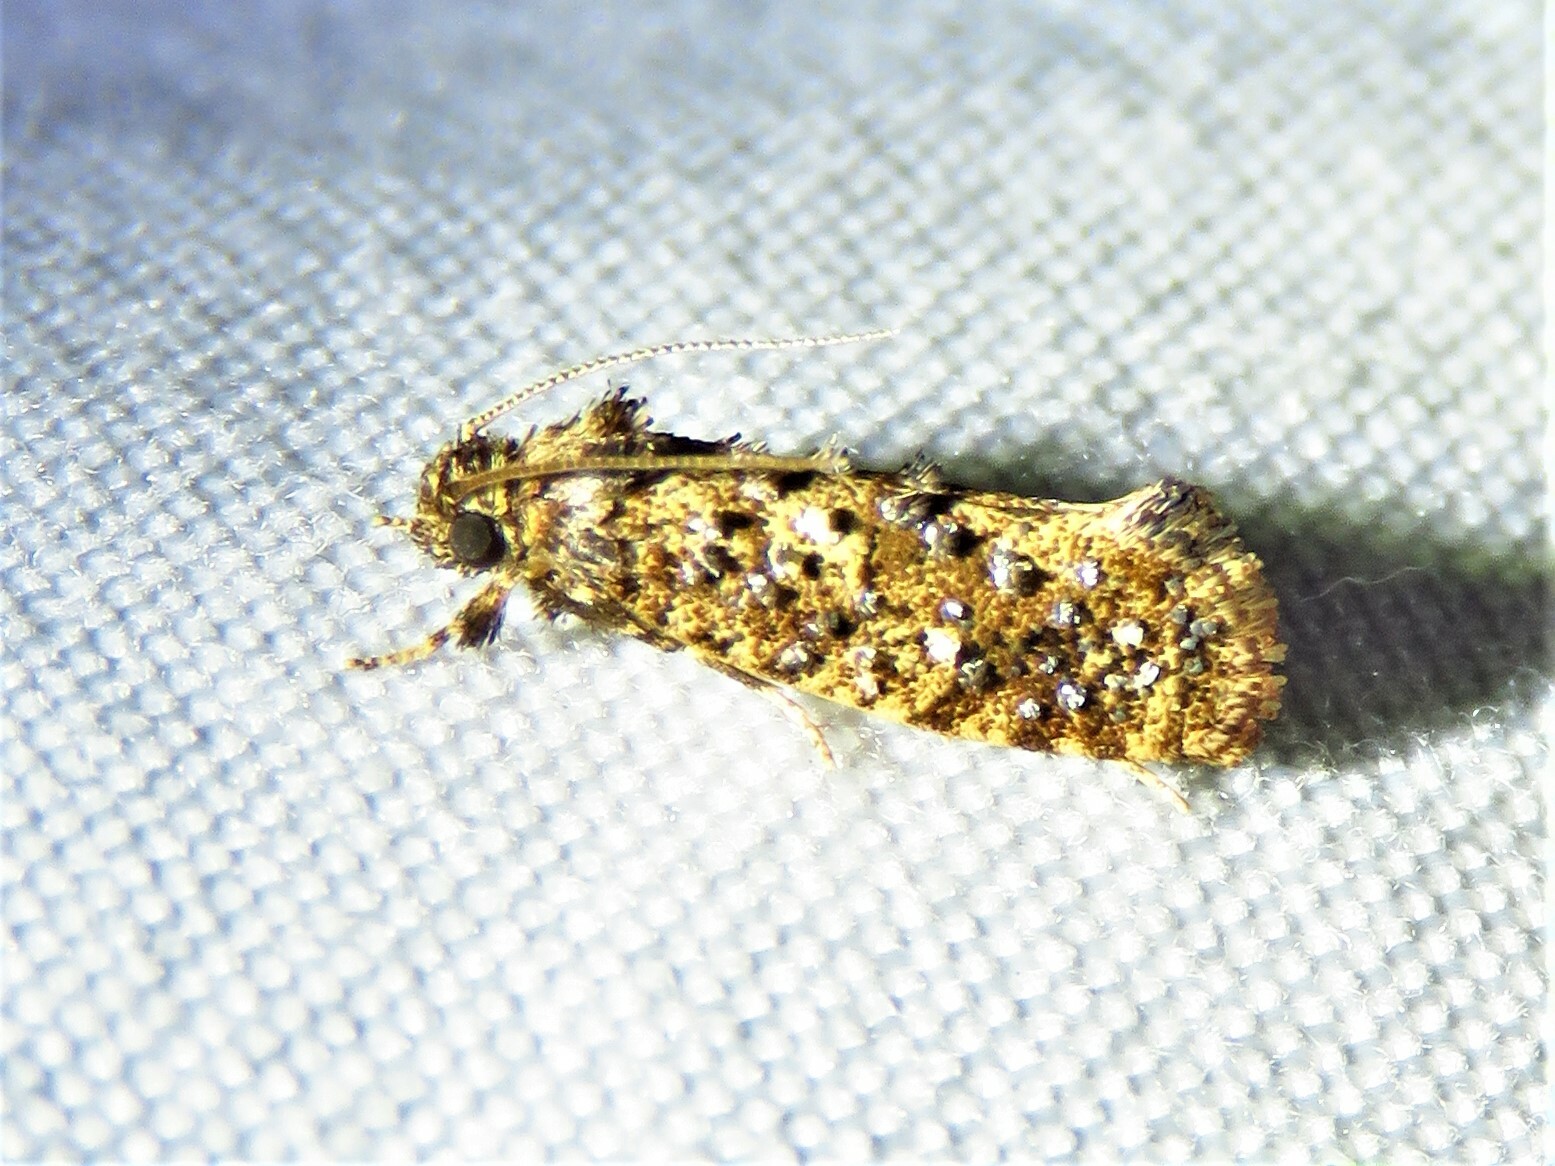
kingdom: Animalia
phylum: Arthropoda
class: Insecta
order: Lepidoptera
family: Tineidae
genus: Acrolophus
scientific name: Acrolophus cressoni
